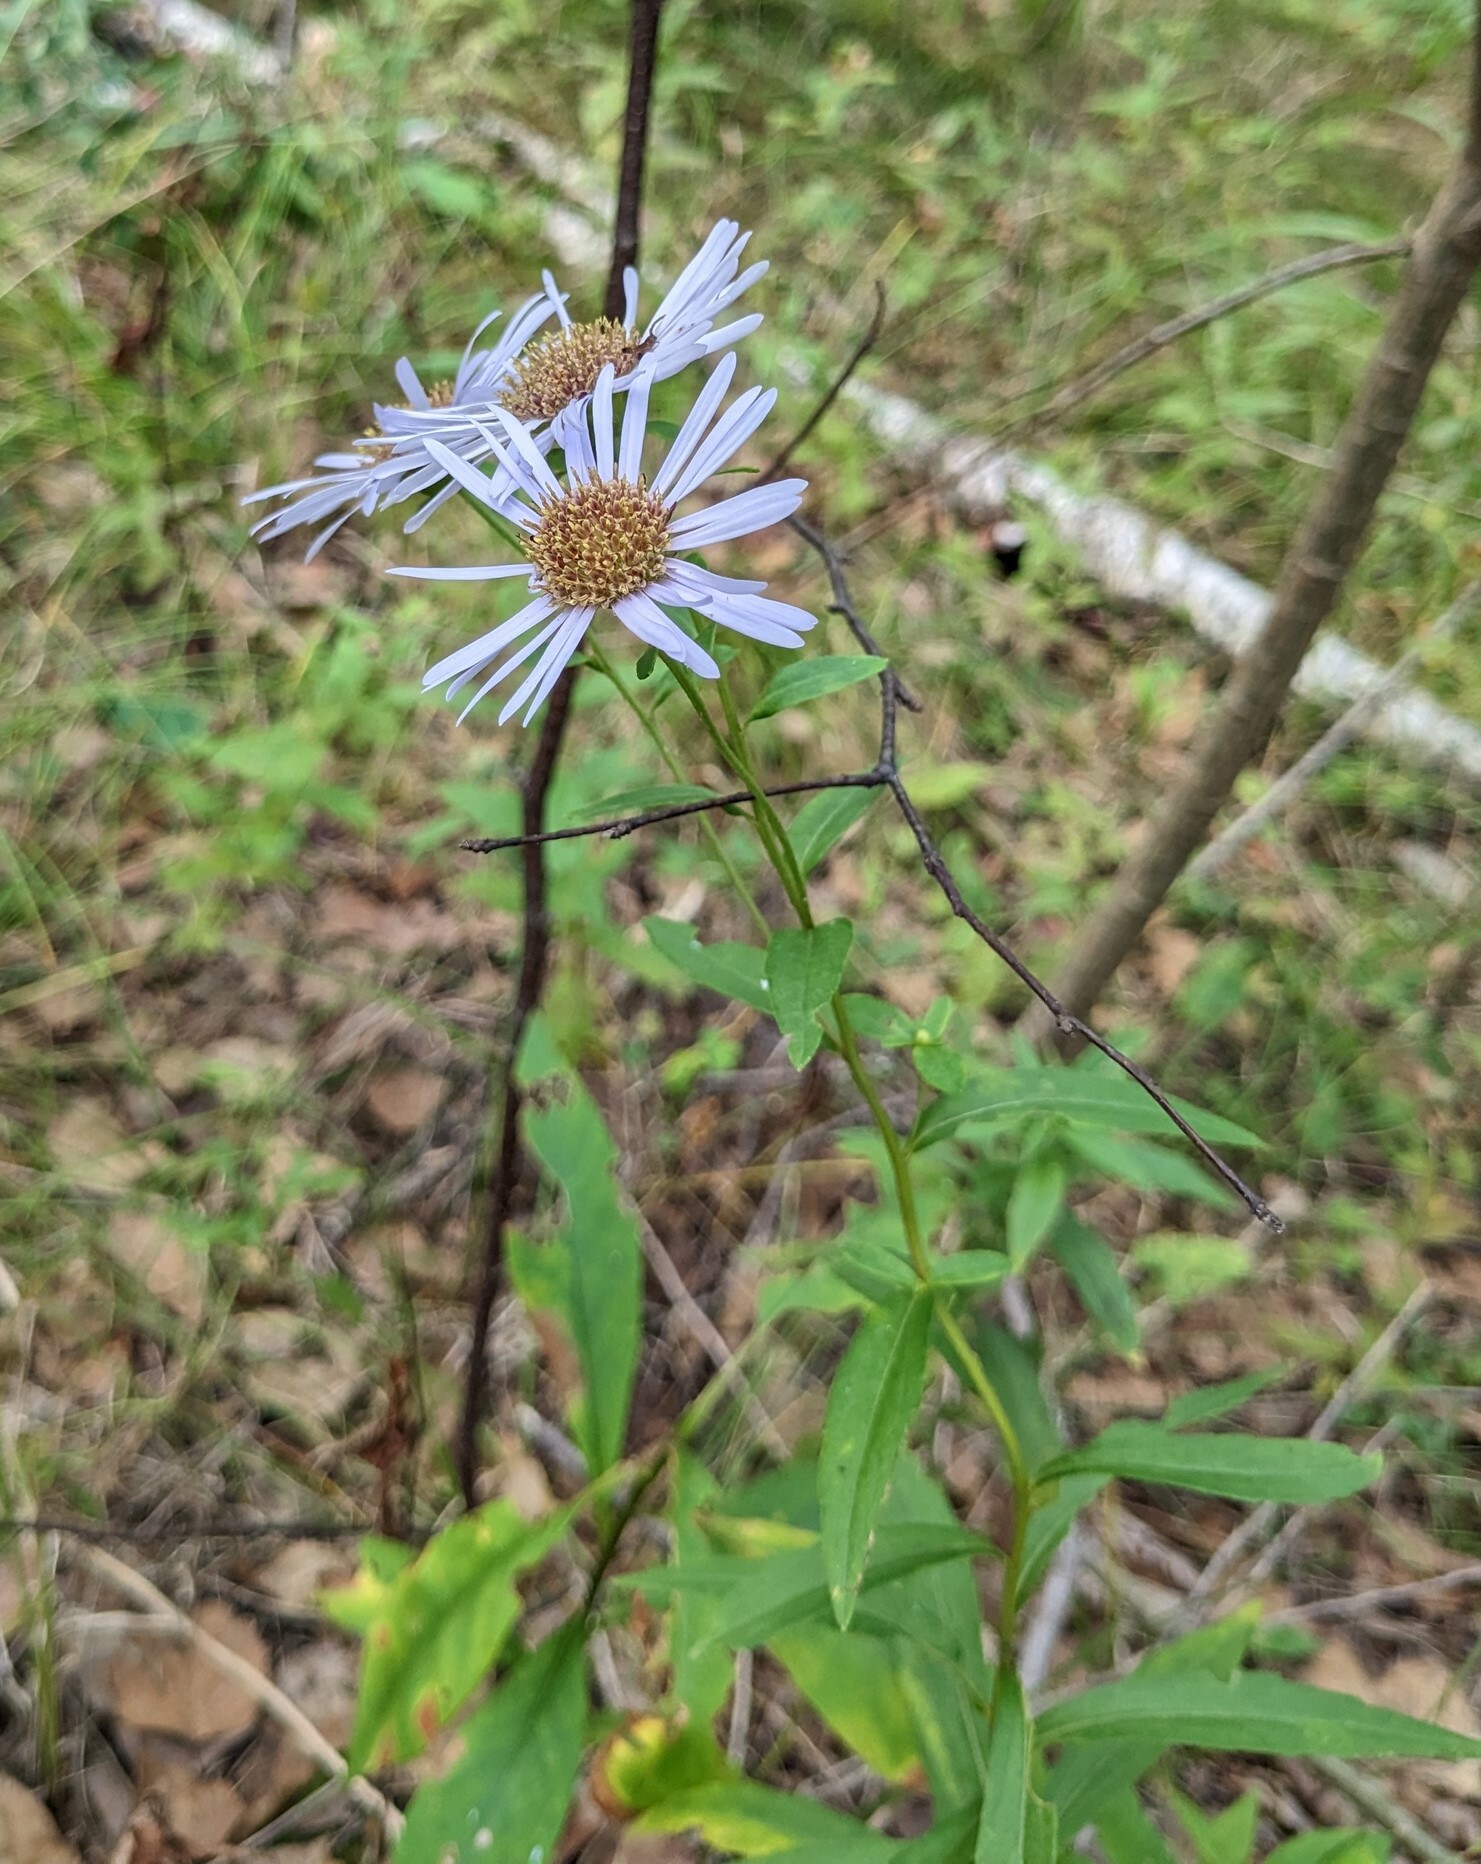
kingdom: Plantae
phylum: Tracheophyta
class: Magnoliopsida
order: Asterales
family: Asteraceae
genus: Aster
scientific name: Aster maackii
